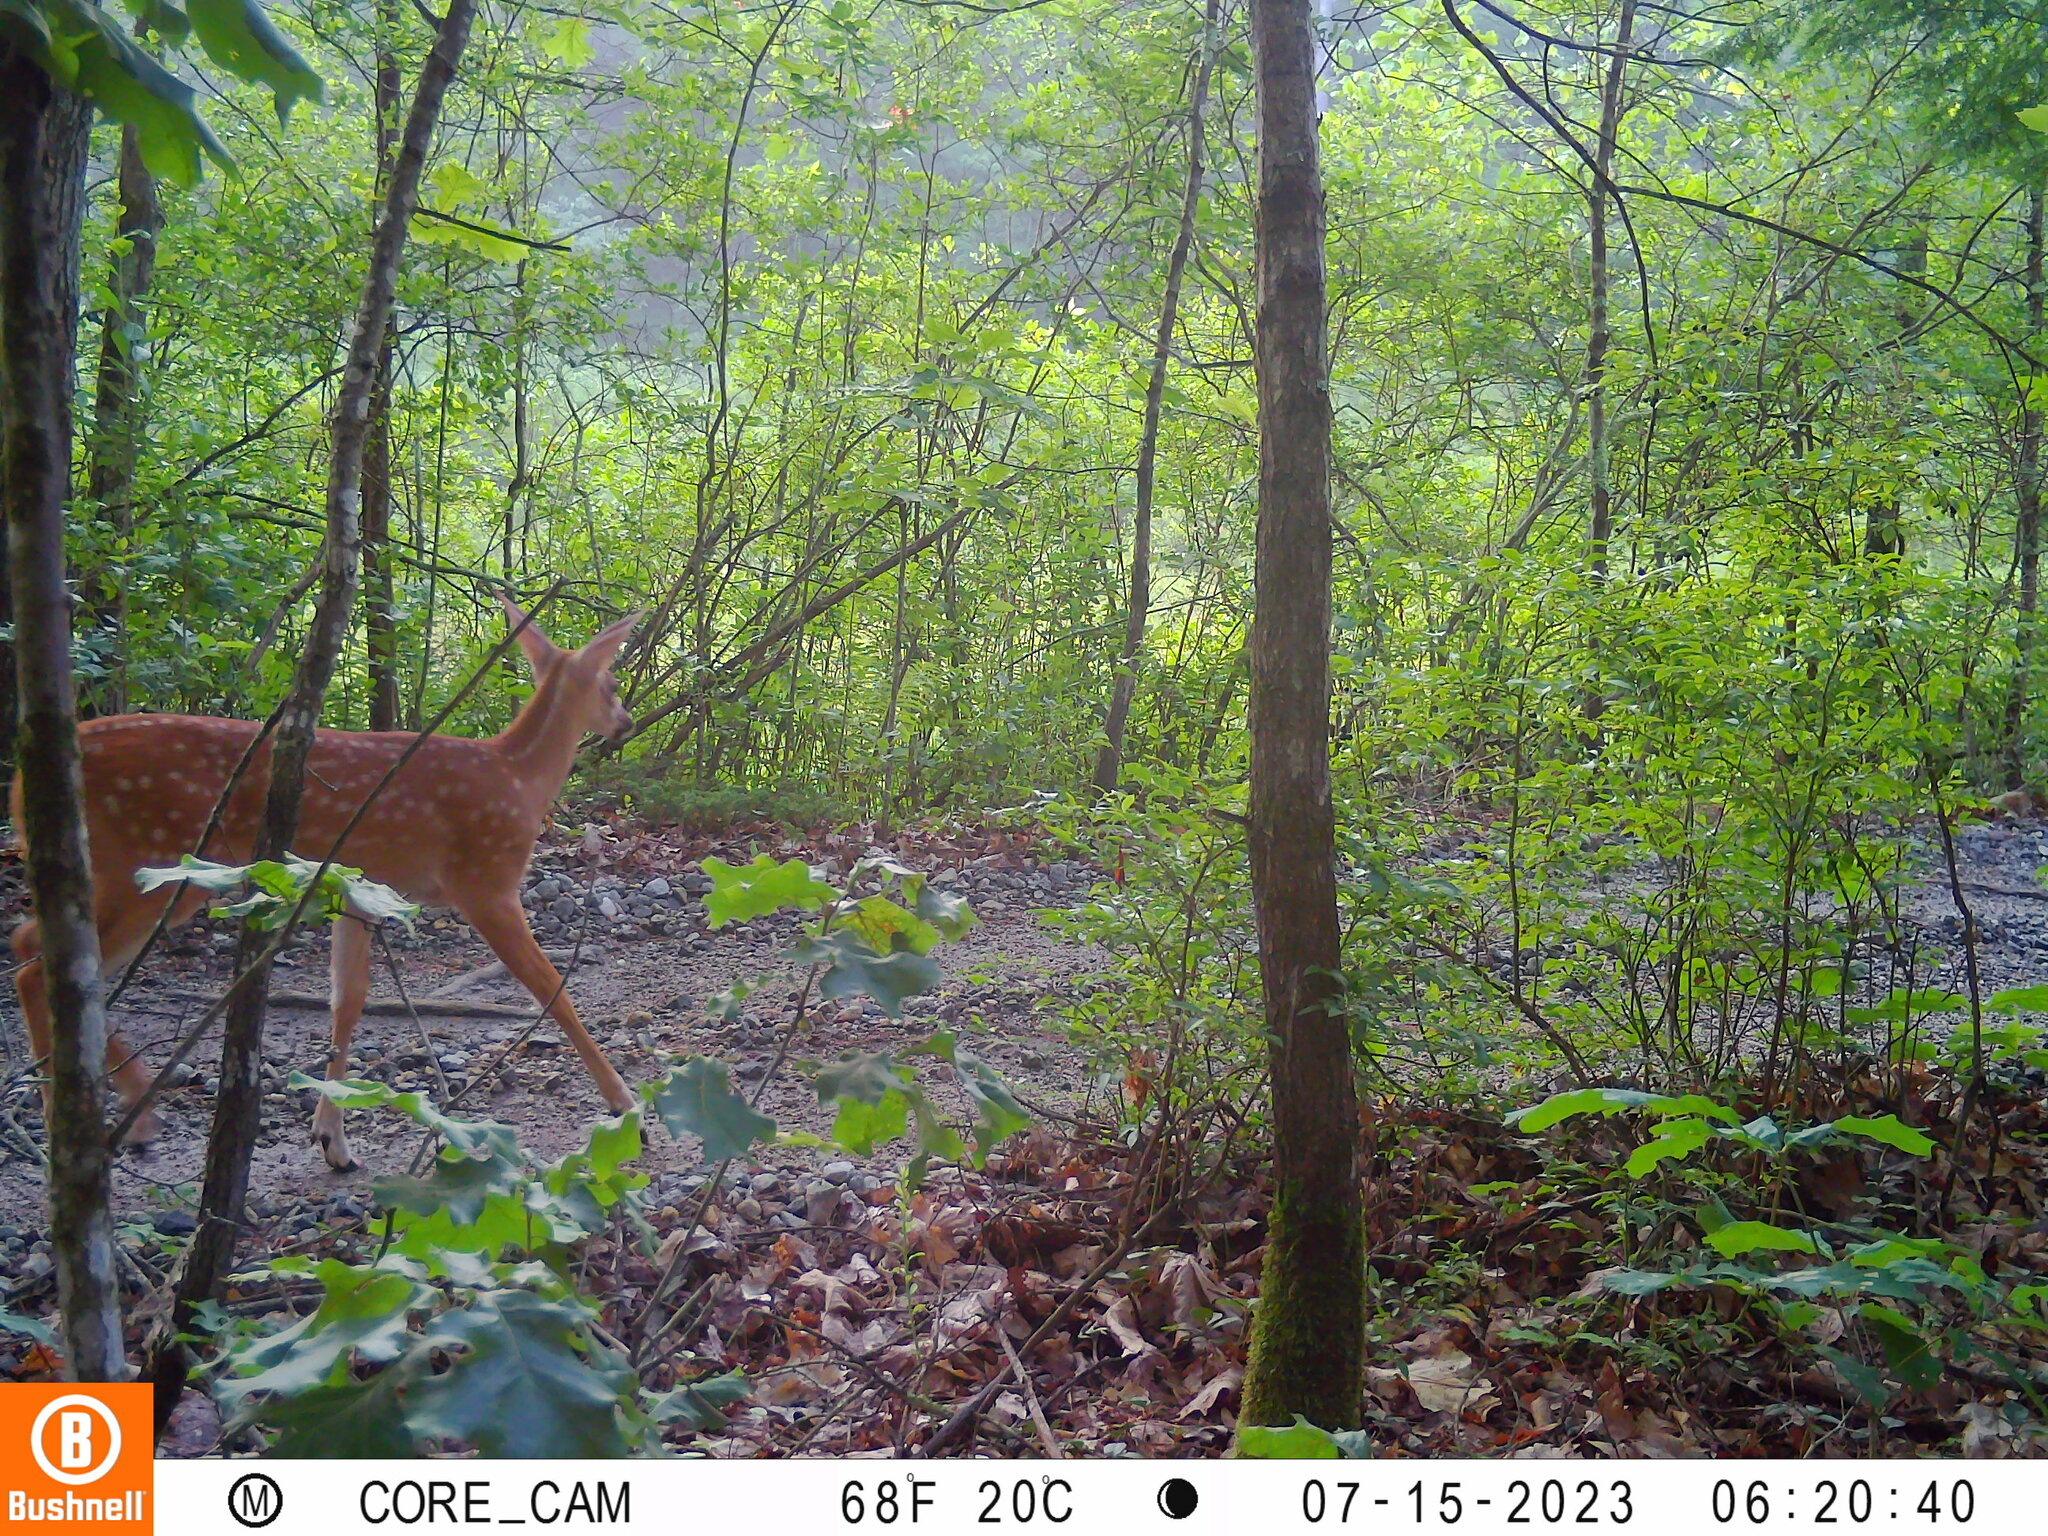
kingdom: Animalia
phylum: Chordata
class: Mammalia
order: Artiodactyla
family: Cervidae
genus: Odocoileus
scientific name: Odocoileus virginianus
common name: White-tailed deer
